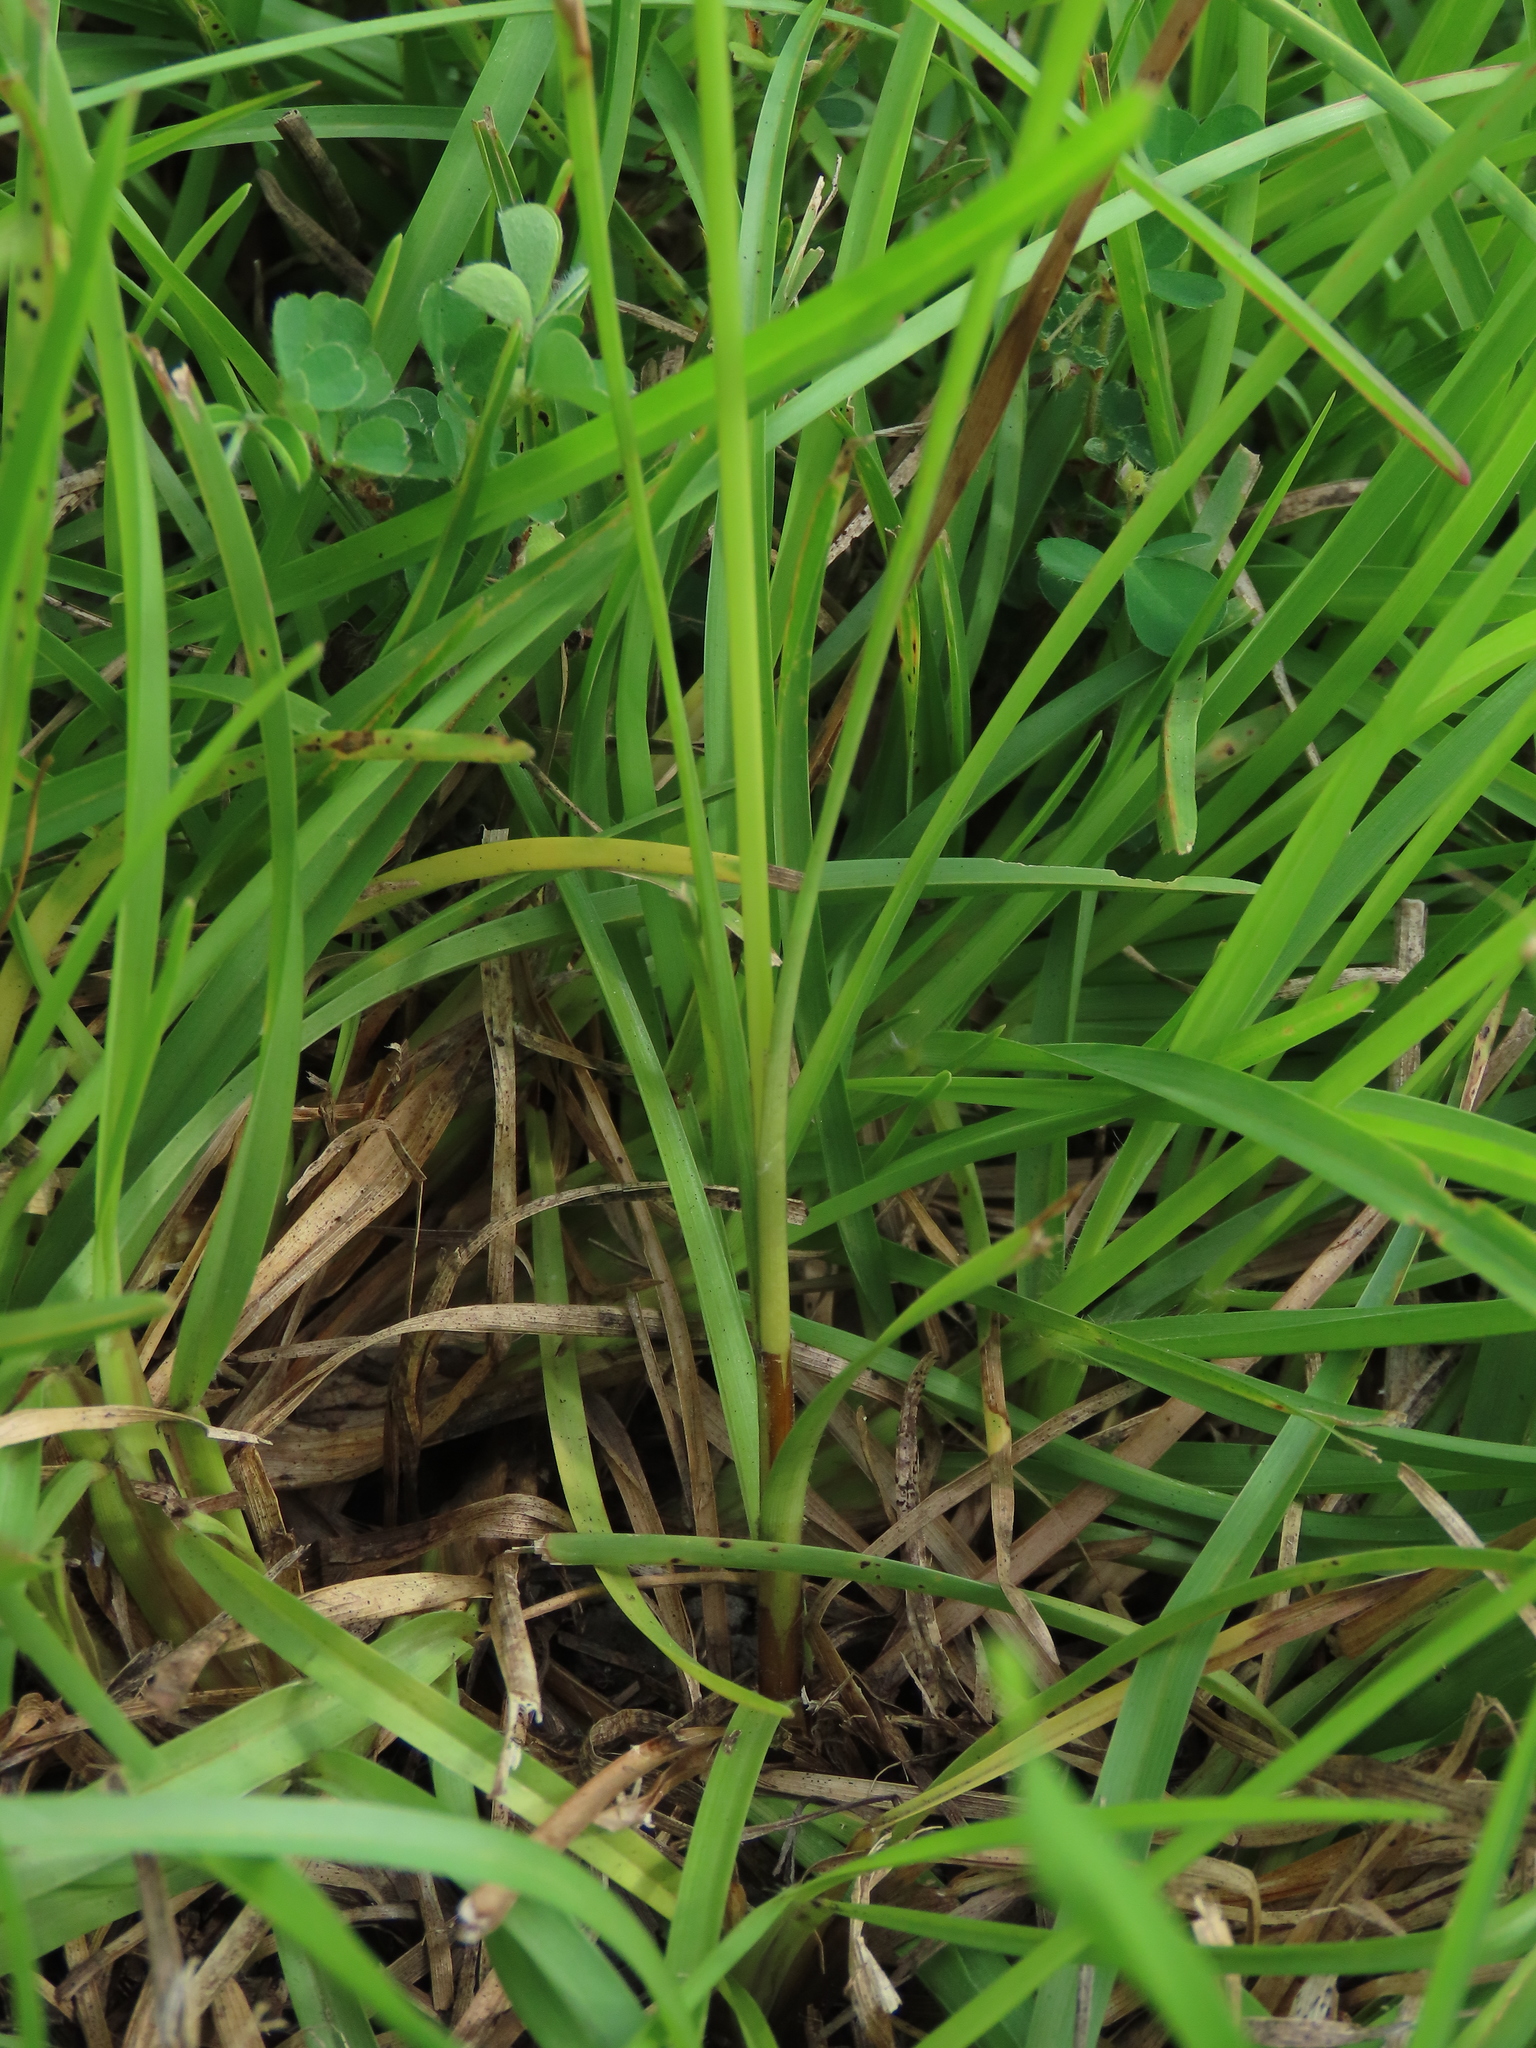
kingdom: Plantae
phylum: Tracheophyta
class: Liliopsida
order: Poales
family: Cyperaceae
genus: Fimbristylis
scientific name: Fimbristylis dichotoma
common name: Forked fimbry
